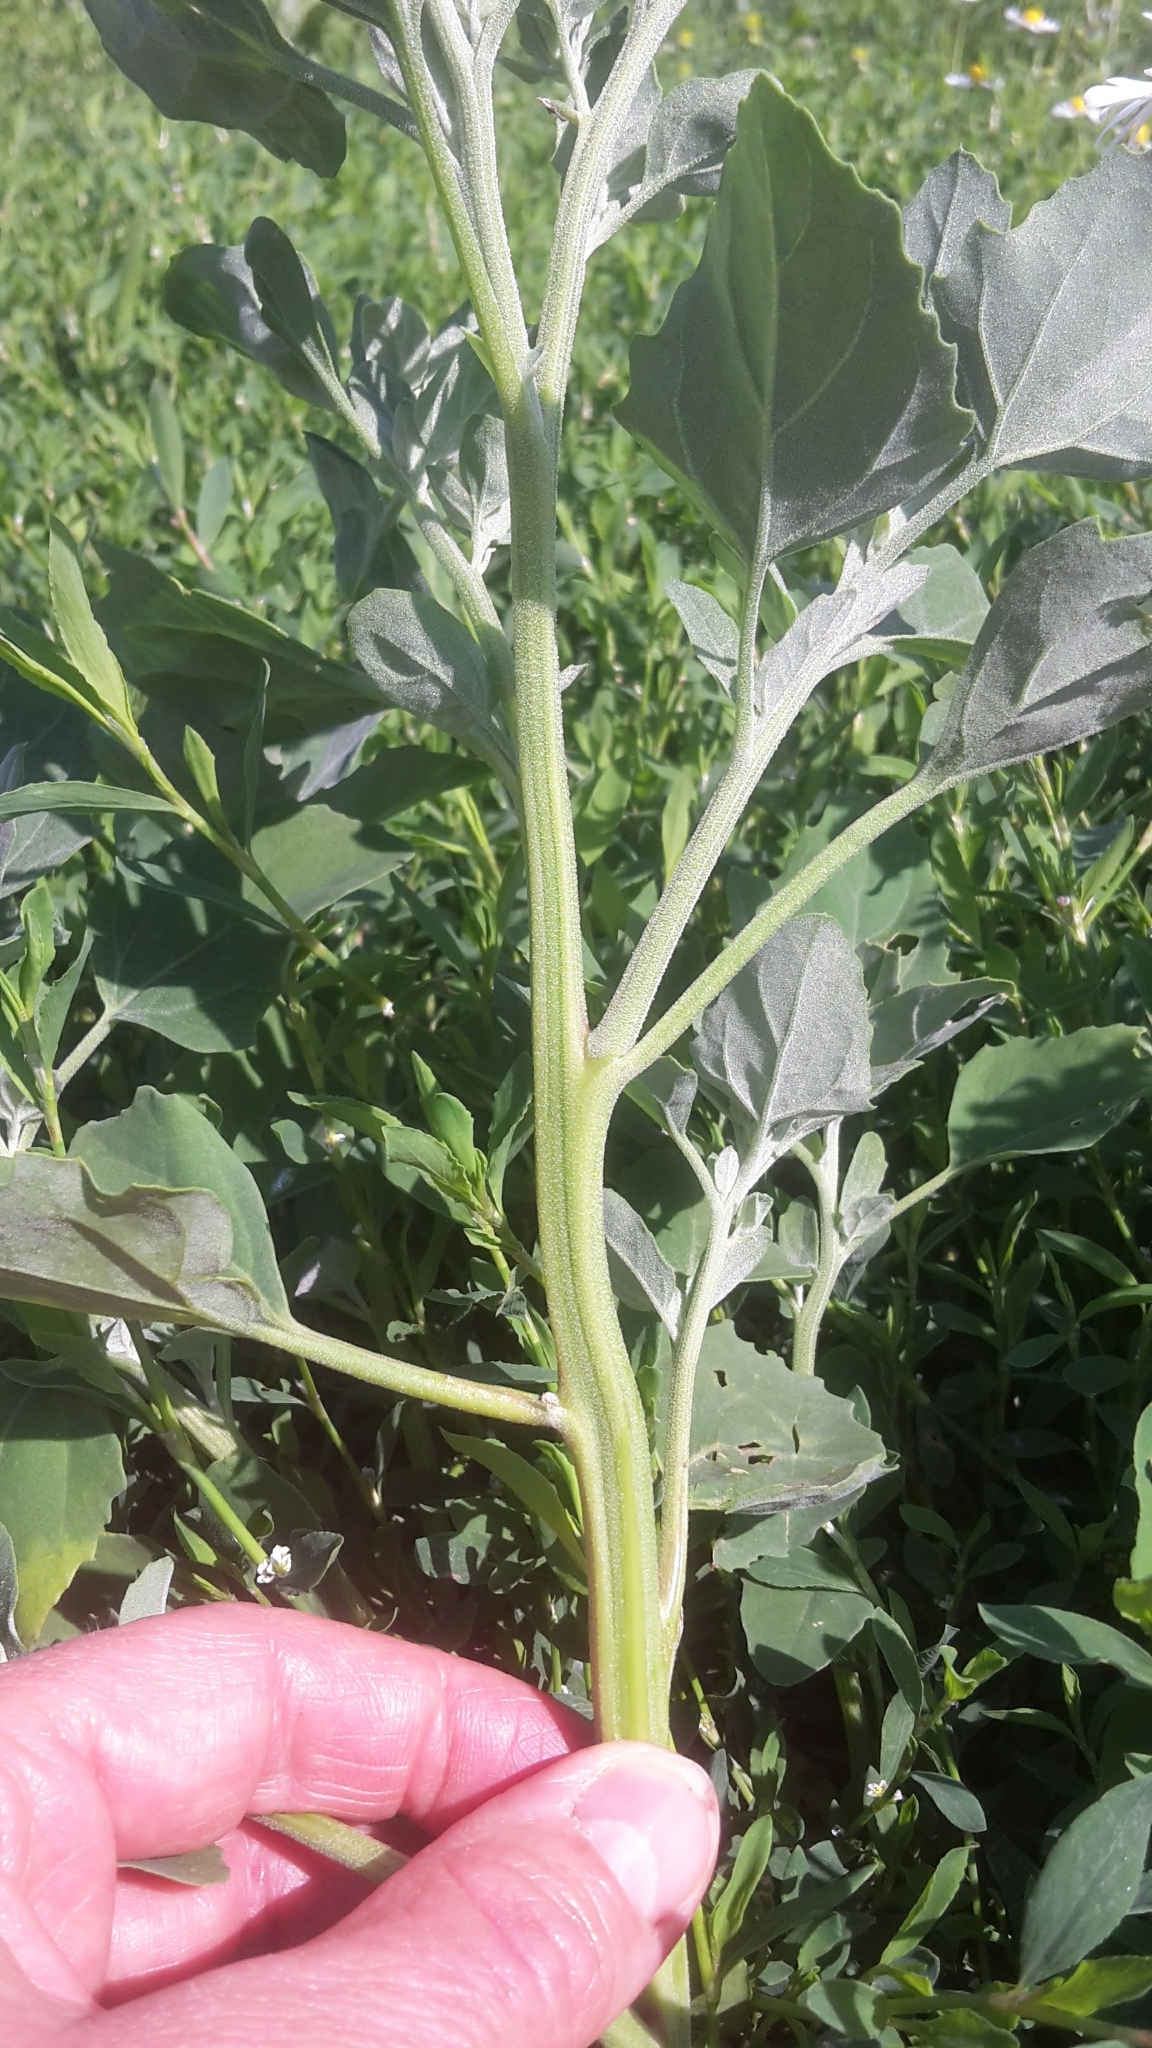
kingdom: Plantae
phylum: Tracheophyta
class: Magnoliopsida
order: Caryophyllales
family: Amaranthaceae
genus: Chenopodium
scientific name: Chenopodium album
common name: Fat-hen
